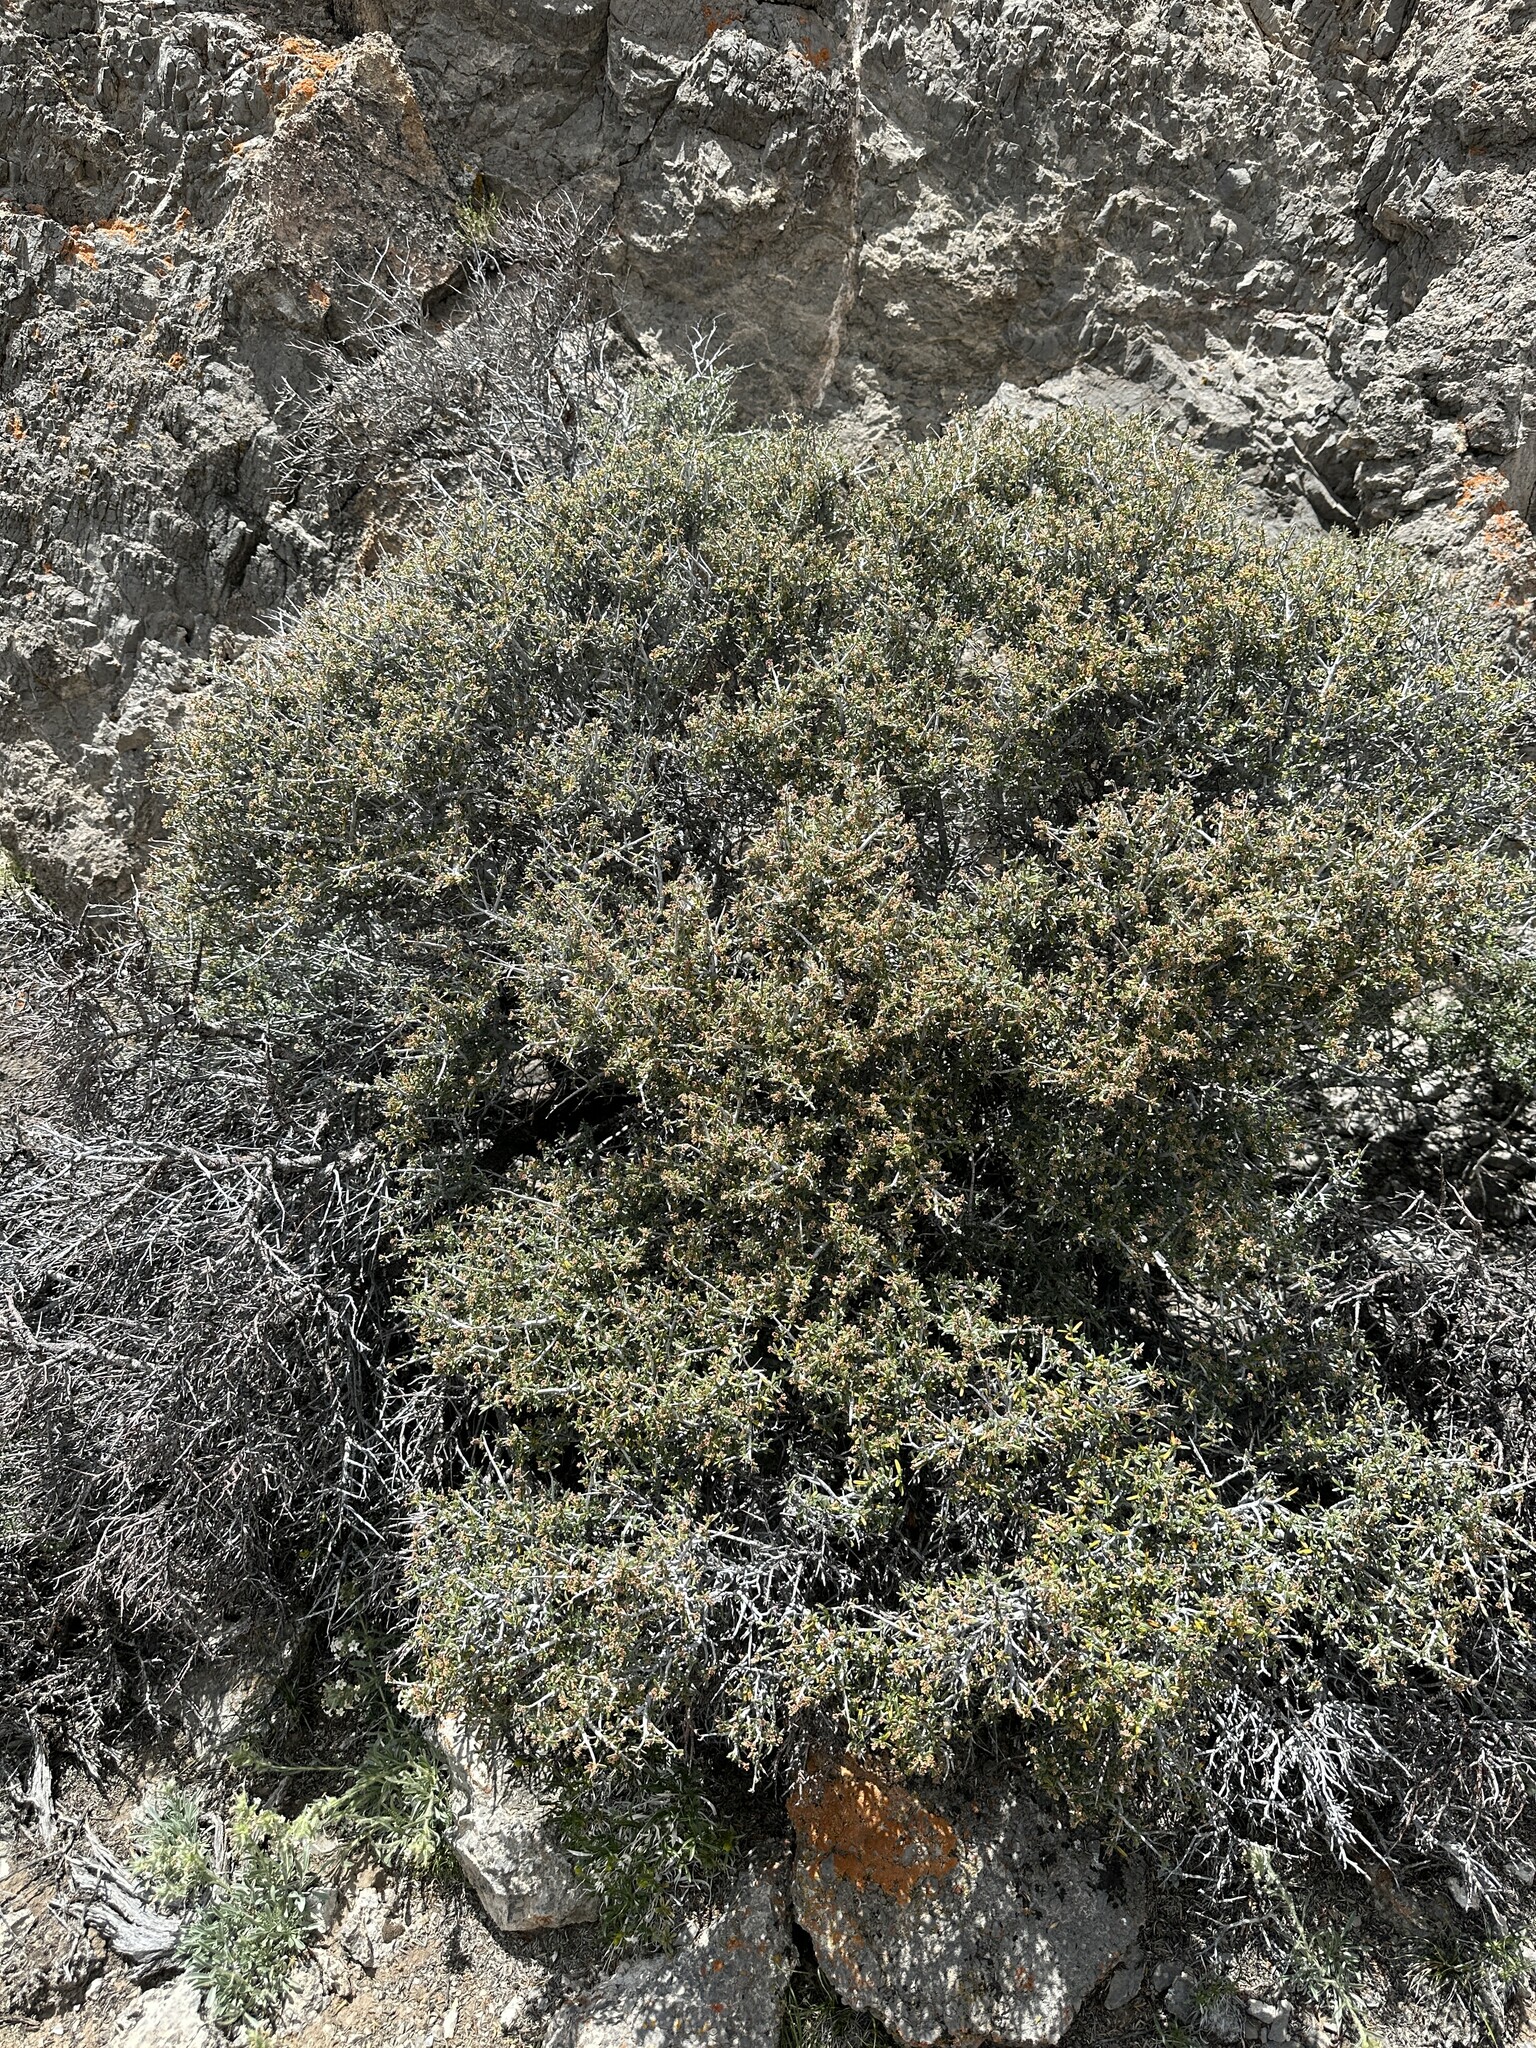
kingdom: Plantae
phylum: Tracheophyta
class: Magnoliopsida
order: Rosales
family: Rosaceae
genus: Cercocarpus
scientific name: Cercocarpus intricatus
